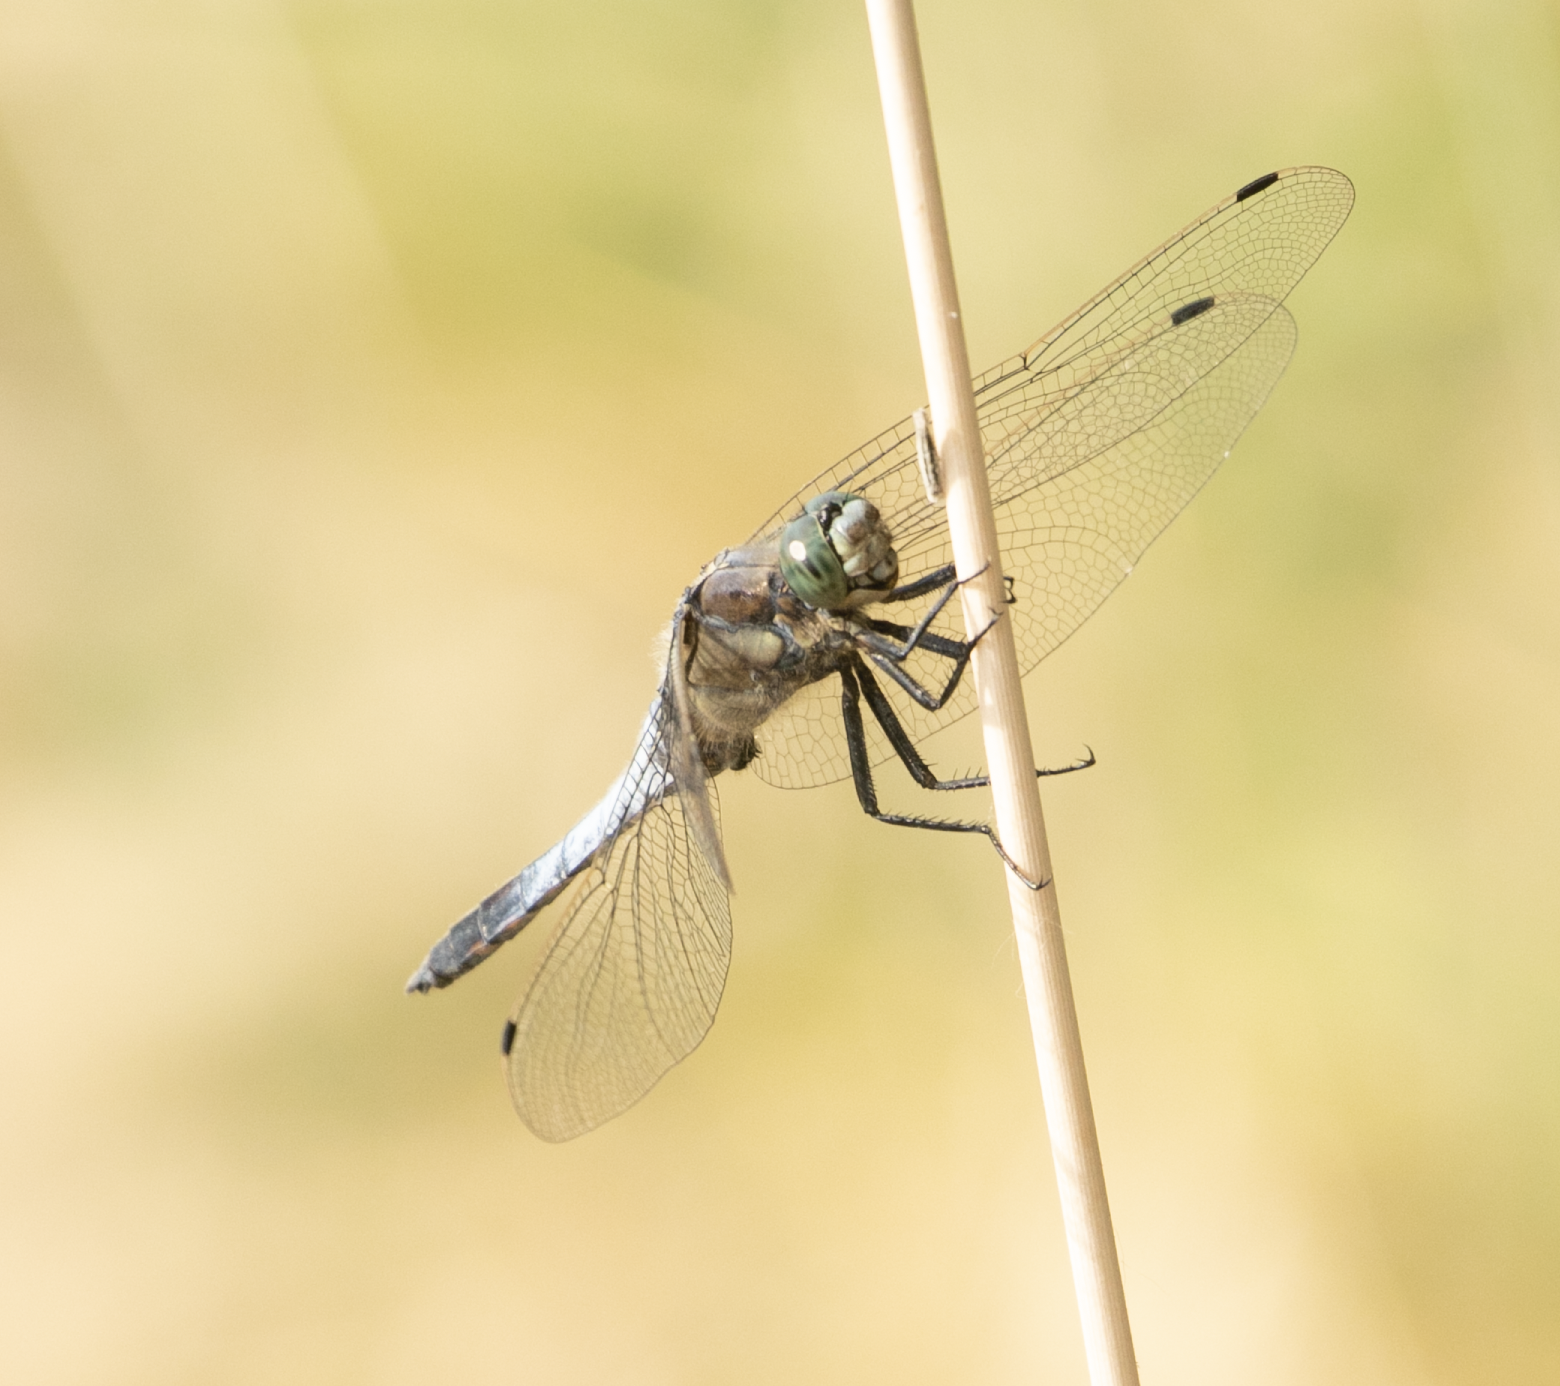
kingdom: Animalia
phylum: Arthropoda
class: Insecta
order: Odonata
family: Libellulidae
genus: Orthetrum
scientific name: Orthetrum cancellatum
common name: Black-tailed skimmer
